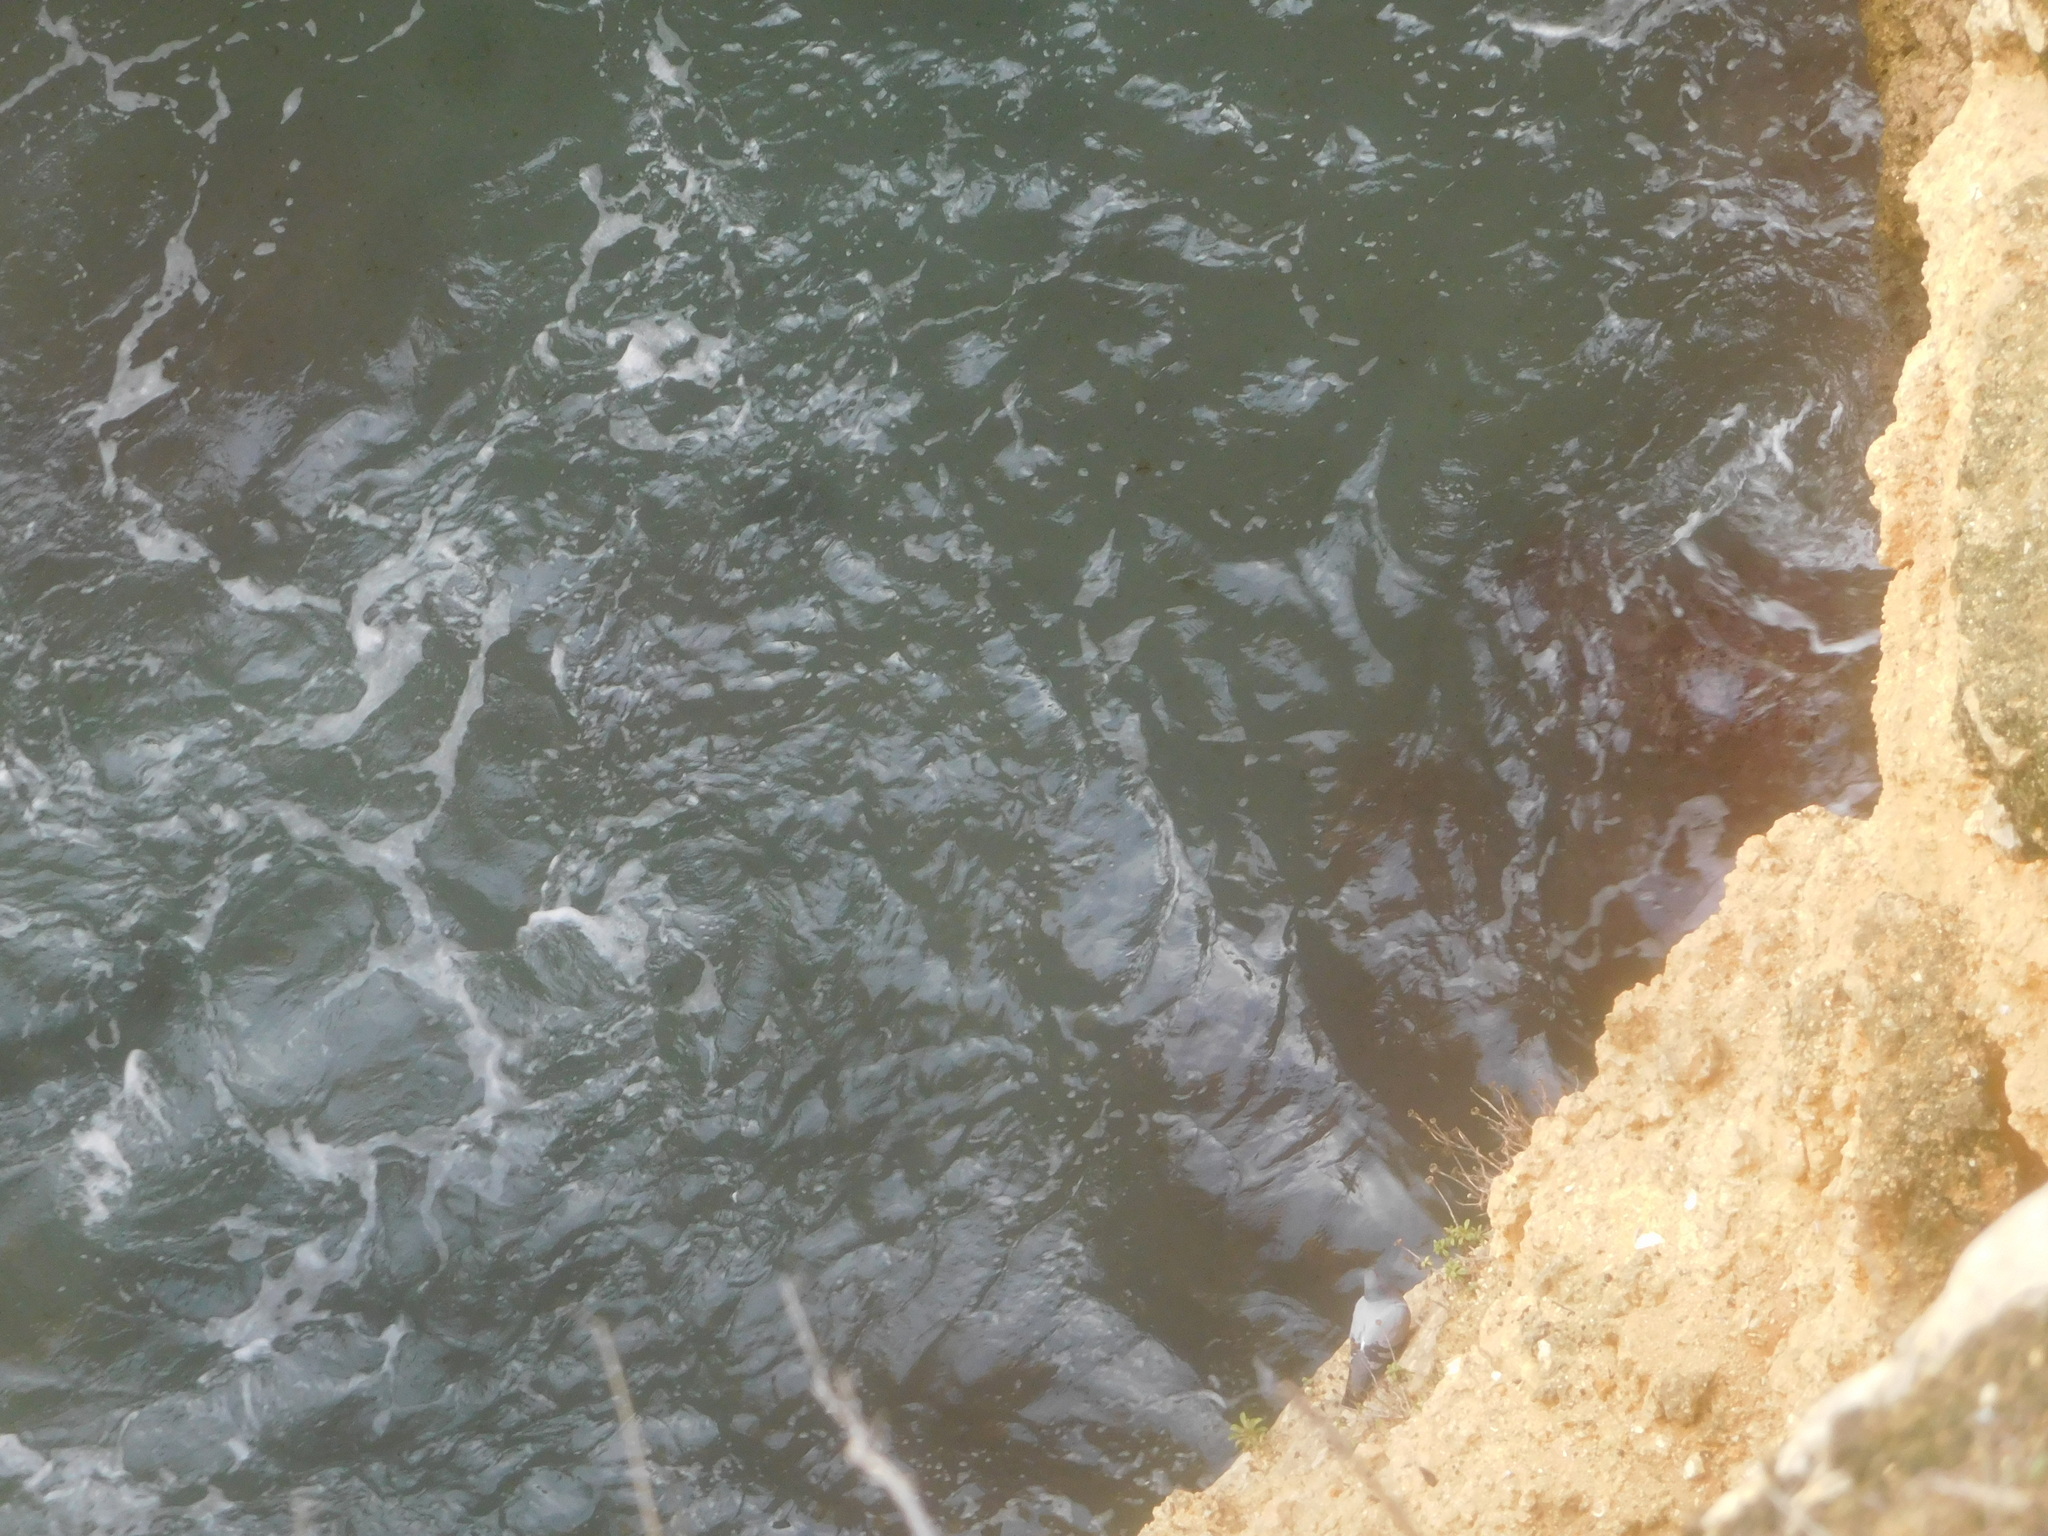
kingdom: Animalia
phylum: Chordata
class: Aves
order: Columbiformes
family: Columbidae
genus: Columba
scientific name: Columba livia
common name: Rock pigeon
